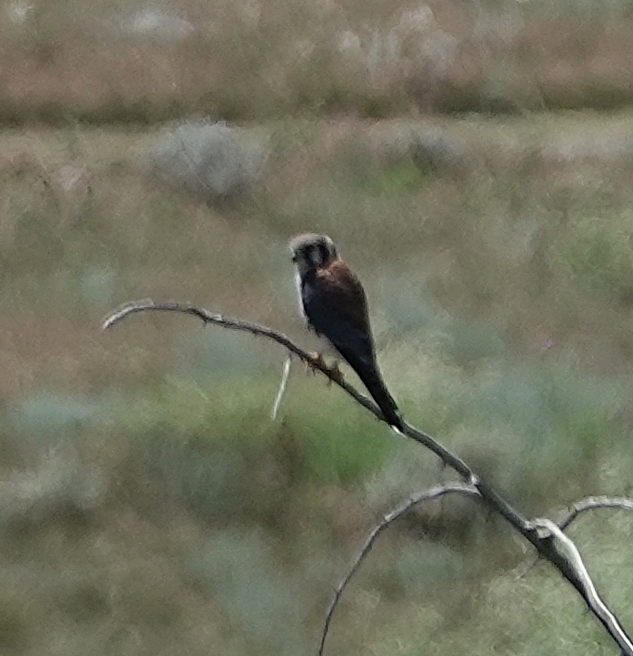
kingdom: Animalia
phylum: Chordata
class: Aves
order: Falconiformes
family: Falconidae
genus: Falco
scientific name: Falco sparverius
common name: American kestrel
